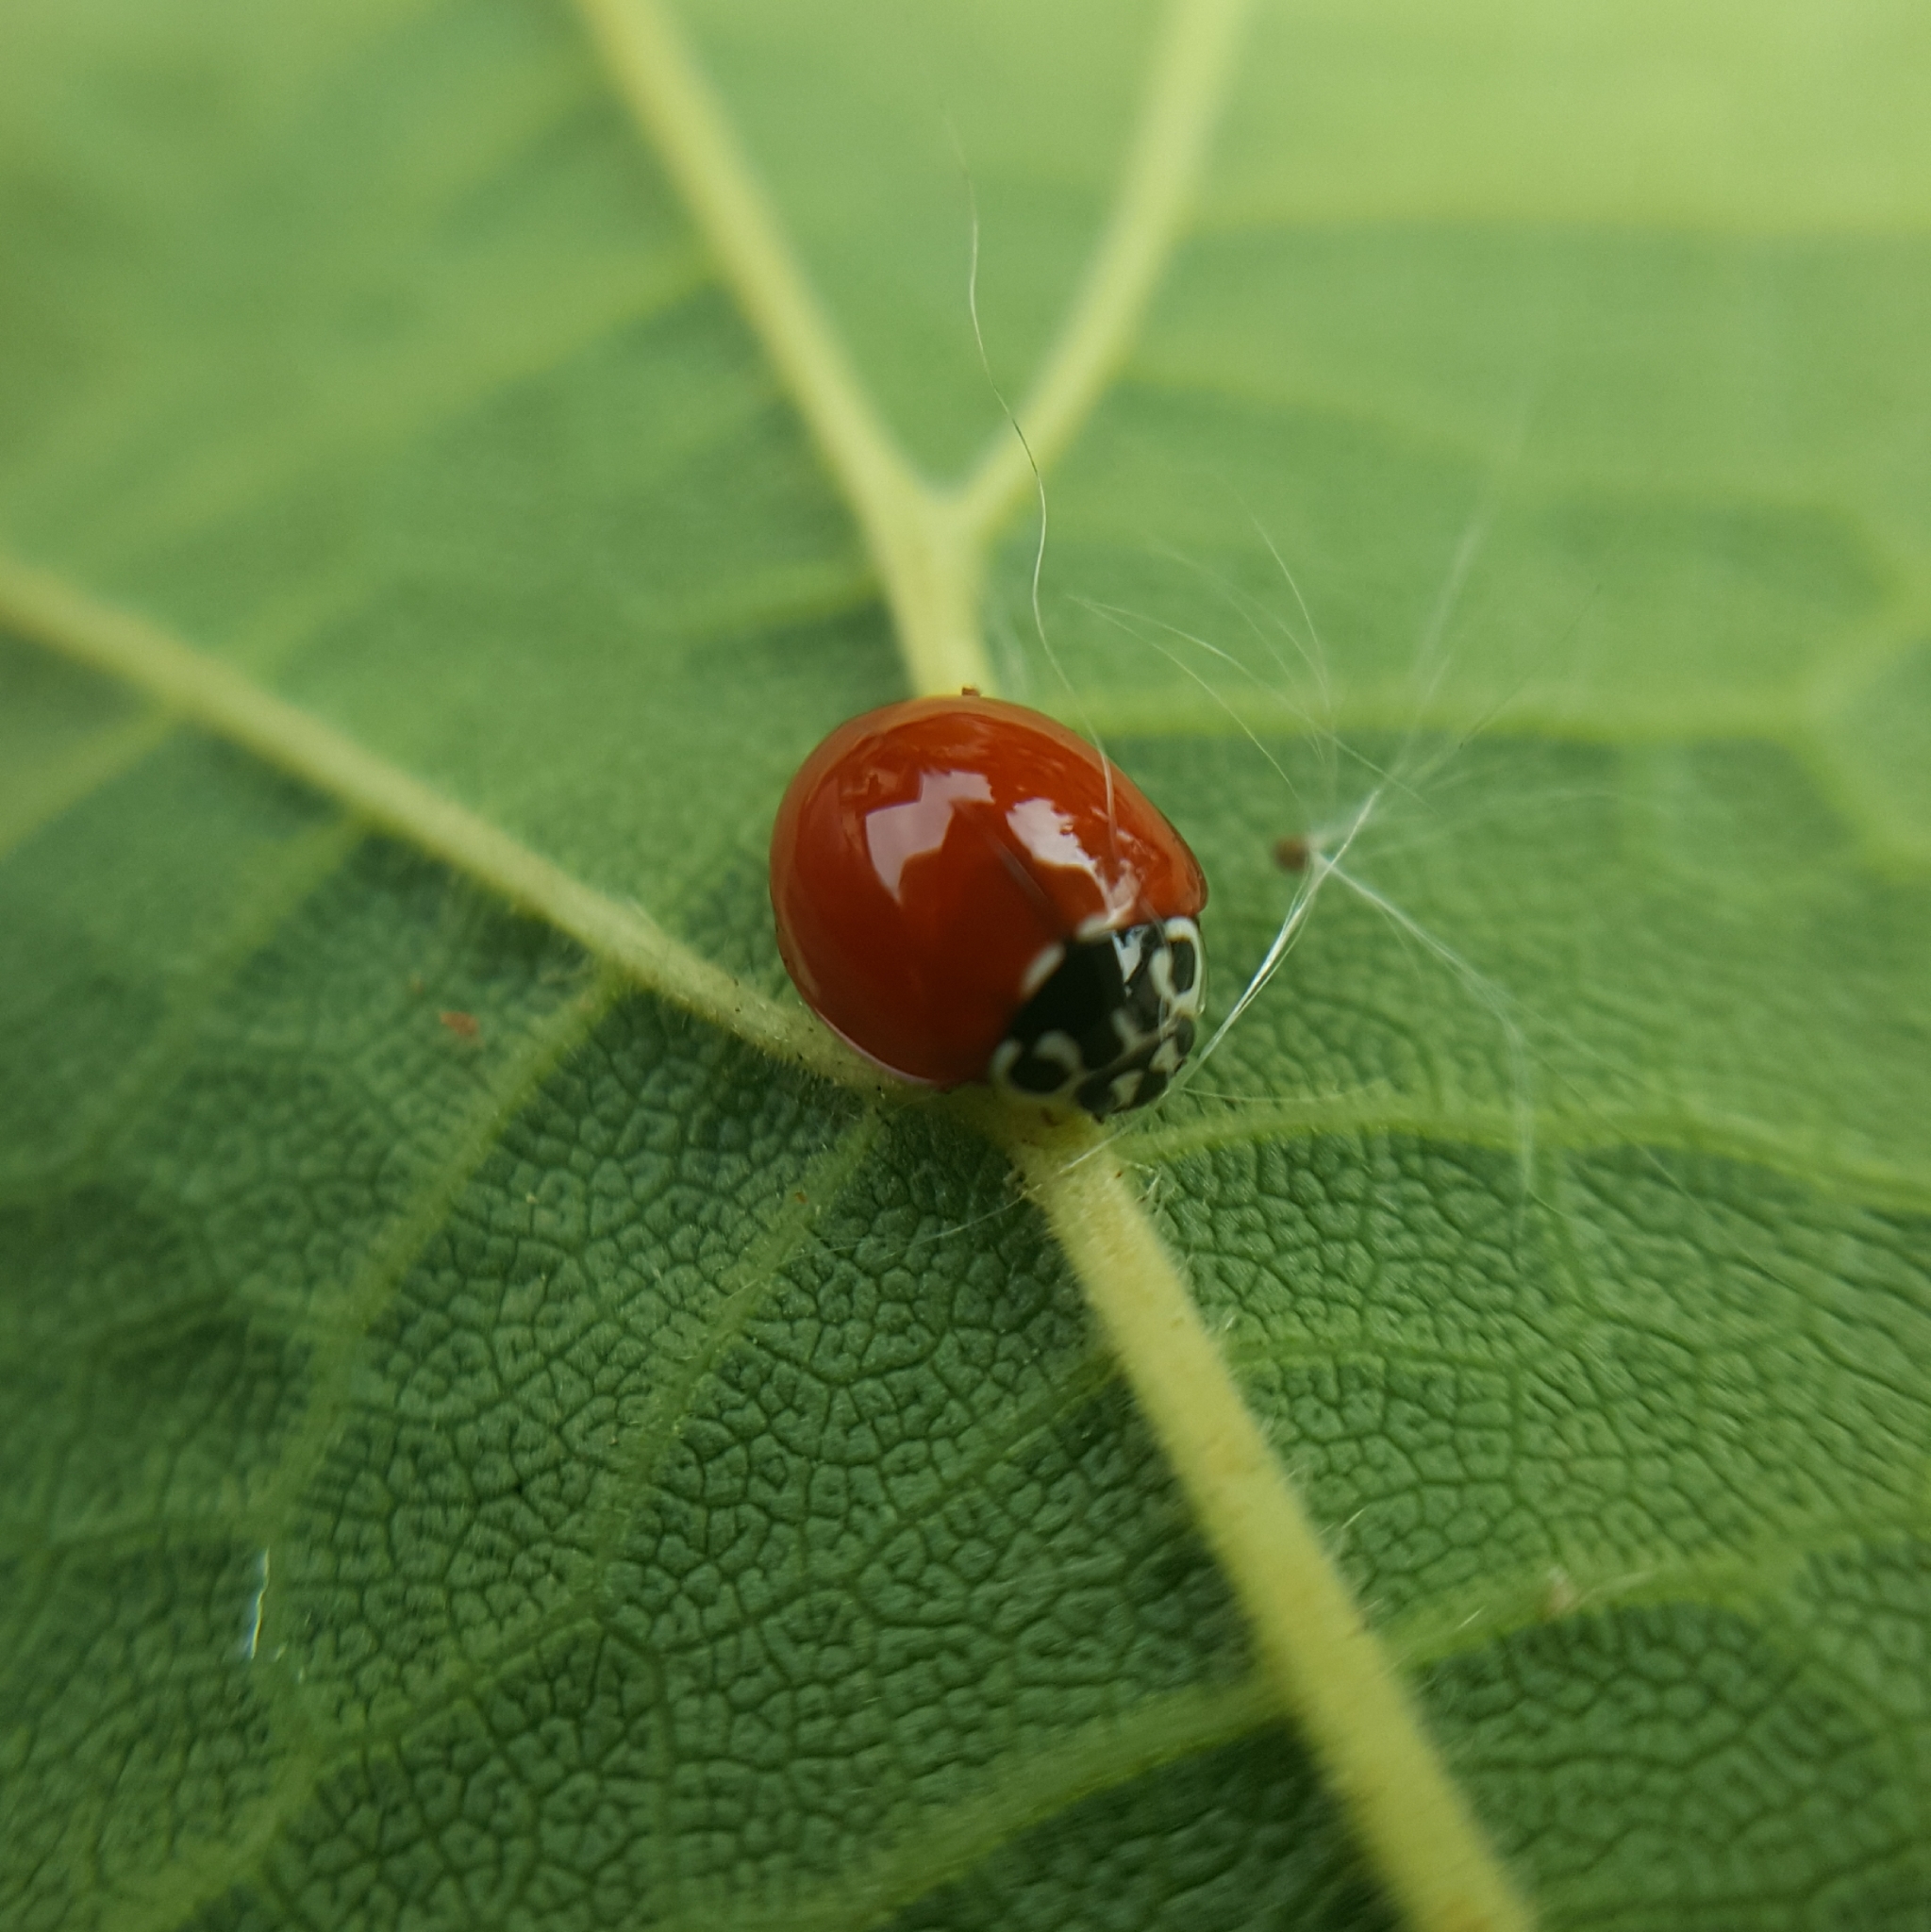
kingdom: Animalia
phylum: Arthropoda
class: Insecta
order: Coleoptera
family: Coccinellidae
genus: Cycloneda
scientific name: Cycloneda polita
